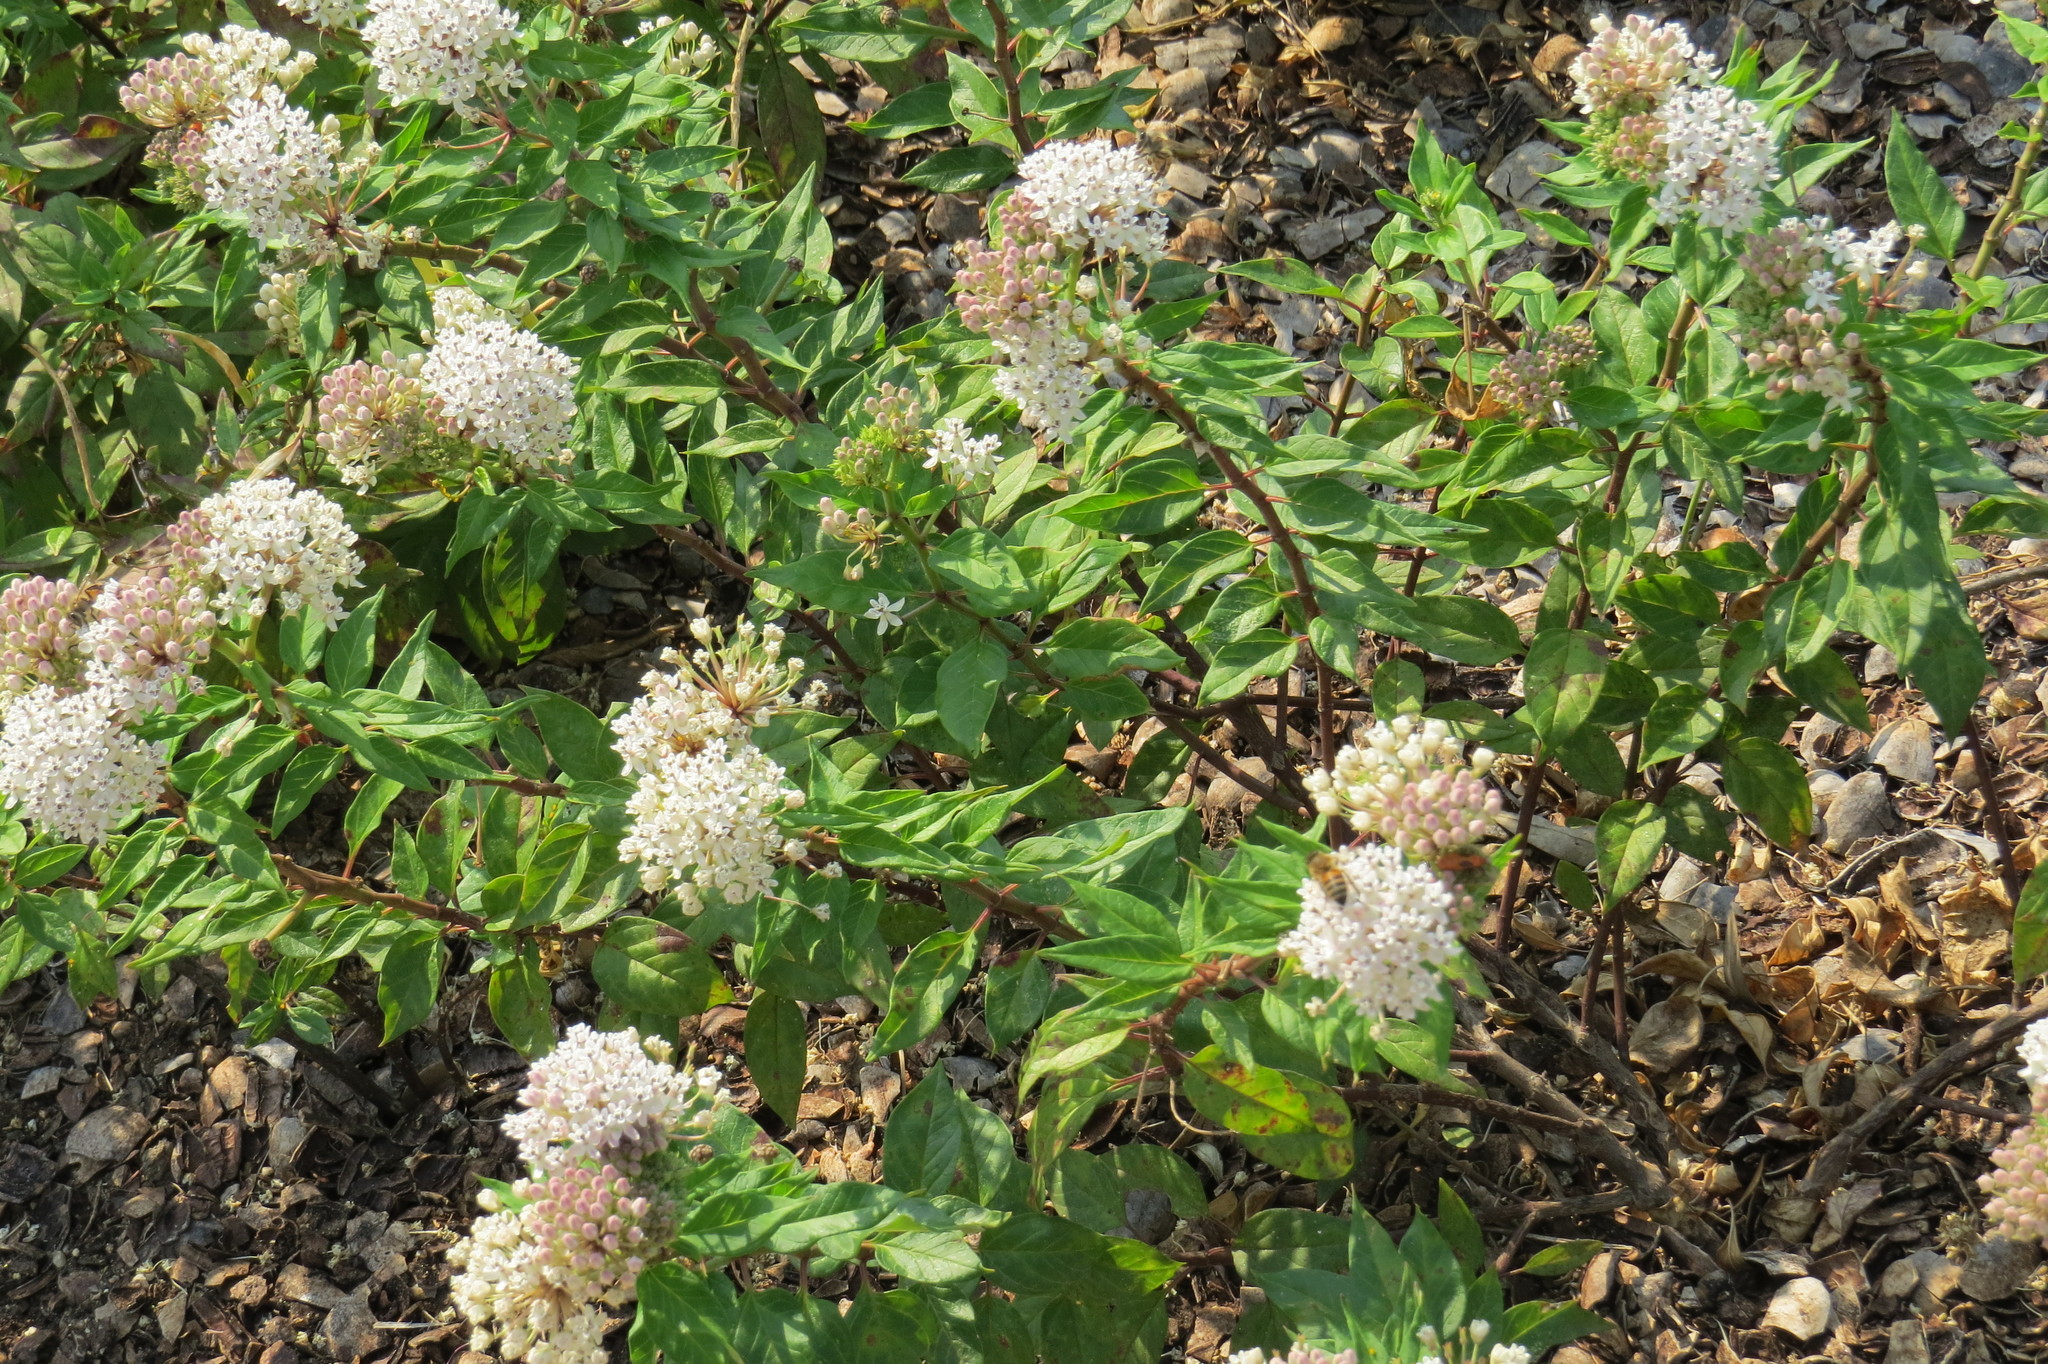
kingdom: Plantae
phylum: Tracheophyta
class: Magnoliopsida
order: Gentianales
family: Apocynaceae
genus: Asclepias
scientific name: Asclepias texana
